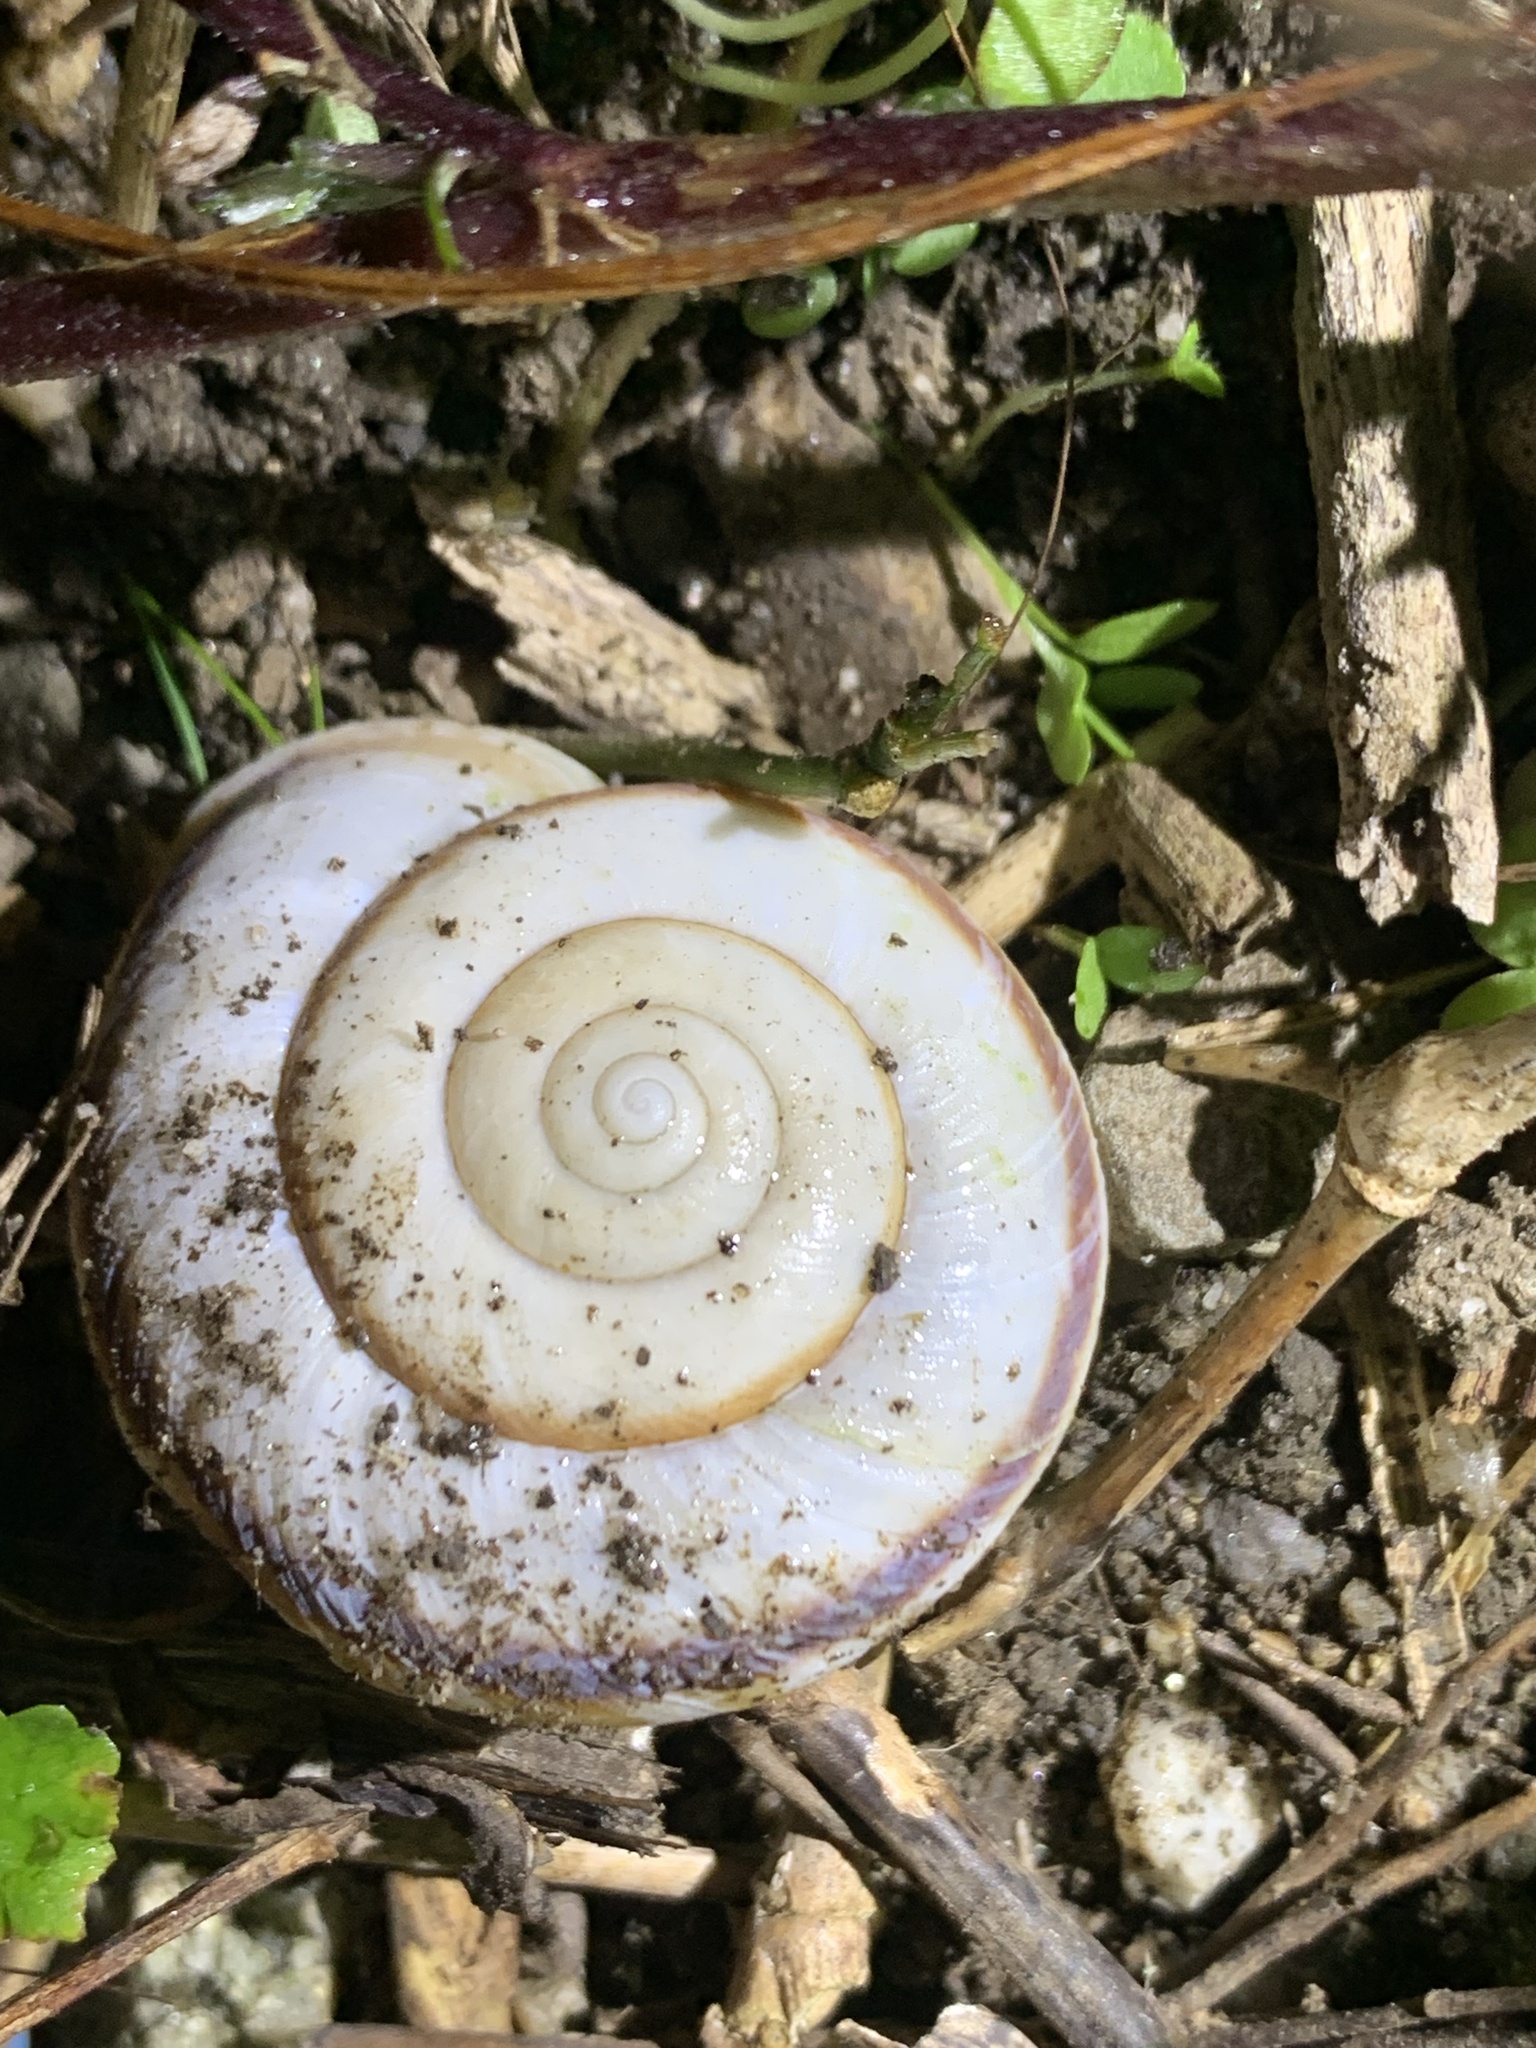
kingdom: Animalia
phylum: Mollusca
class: Gastropoda
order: Stylommatophora
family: Camaenidae
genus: Euhadra
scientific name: Euhadra sandai
